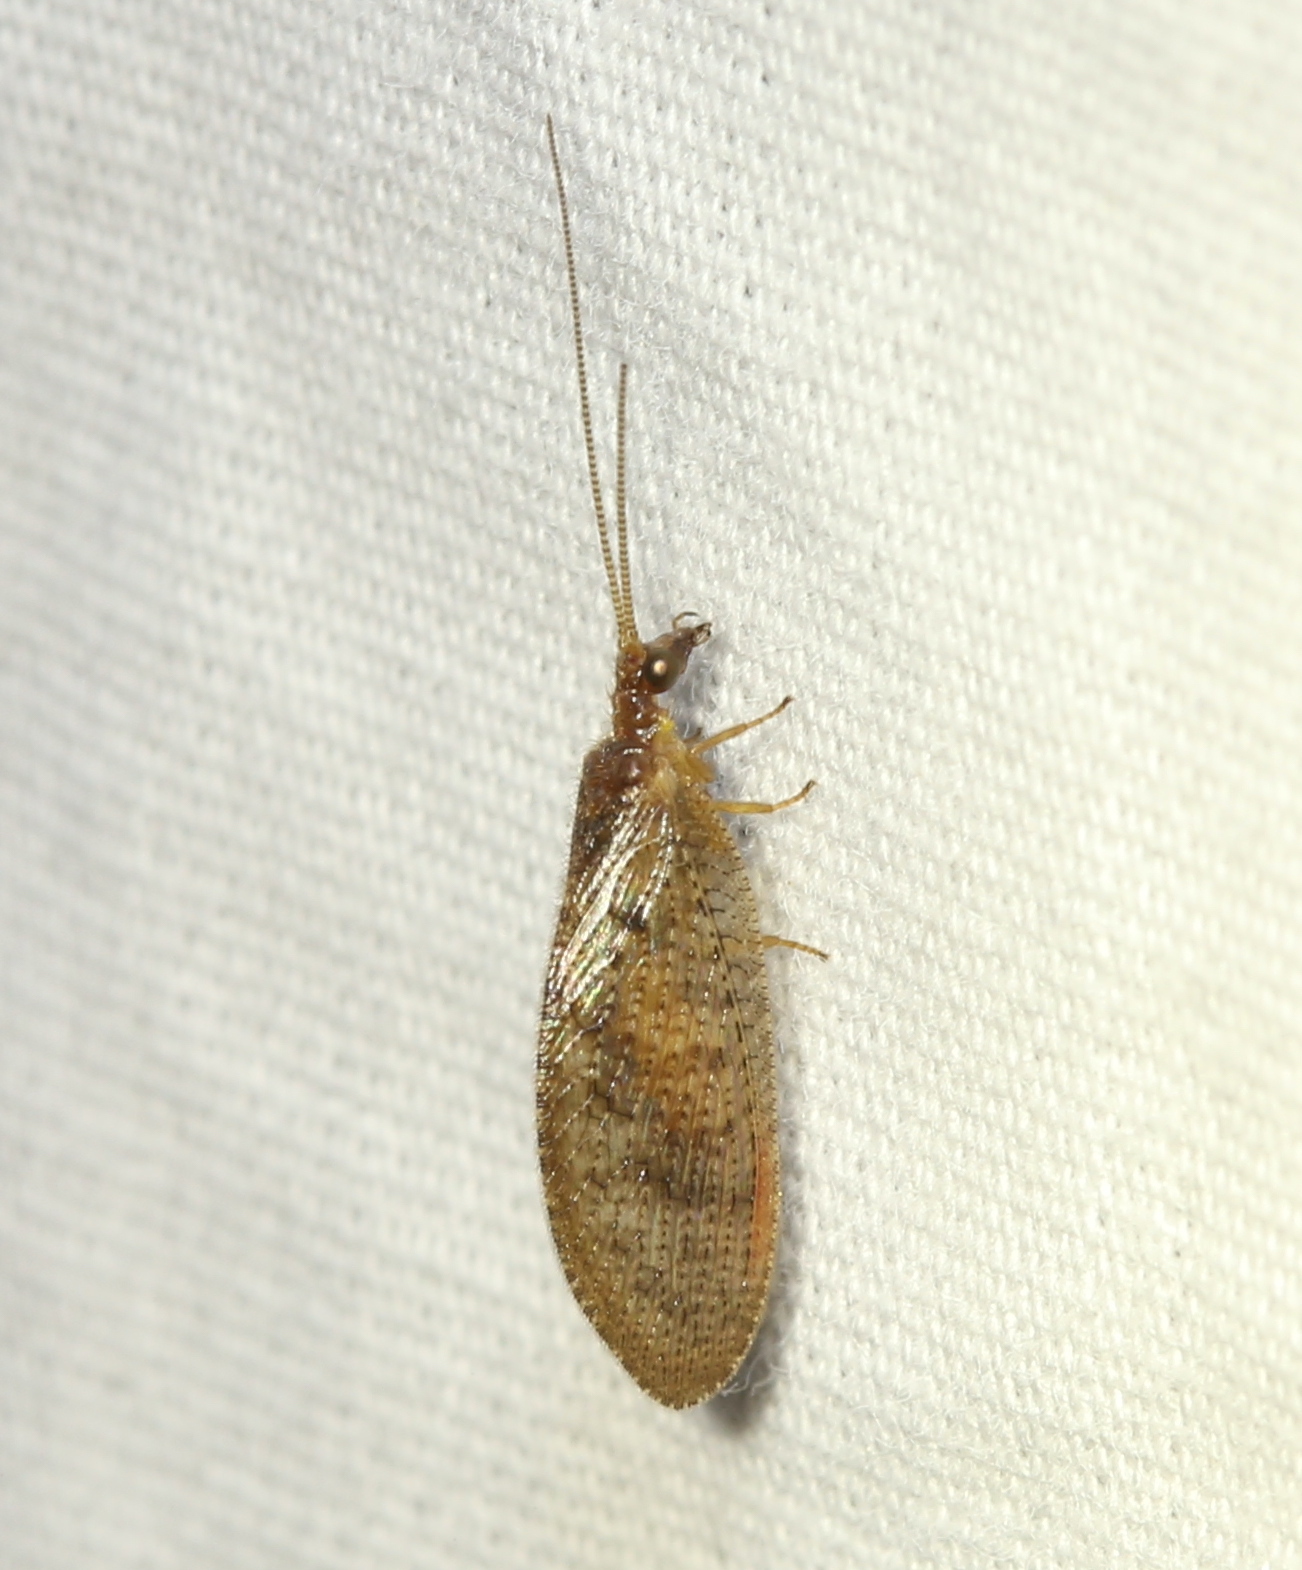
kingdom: Animalia
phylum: Arthropoda
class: Insecta
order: Neuroptera
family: Hemerobiidae
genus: Hemerobius
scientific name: Hemerobius stigma
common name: Brown pine lacewing
